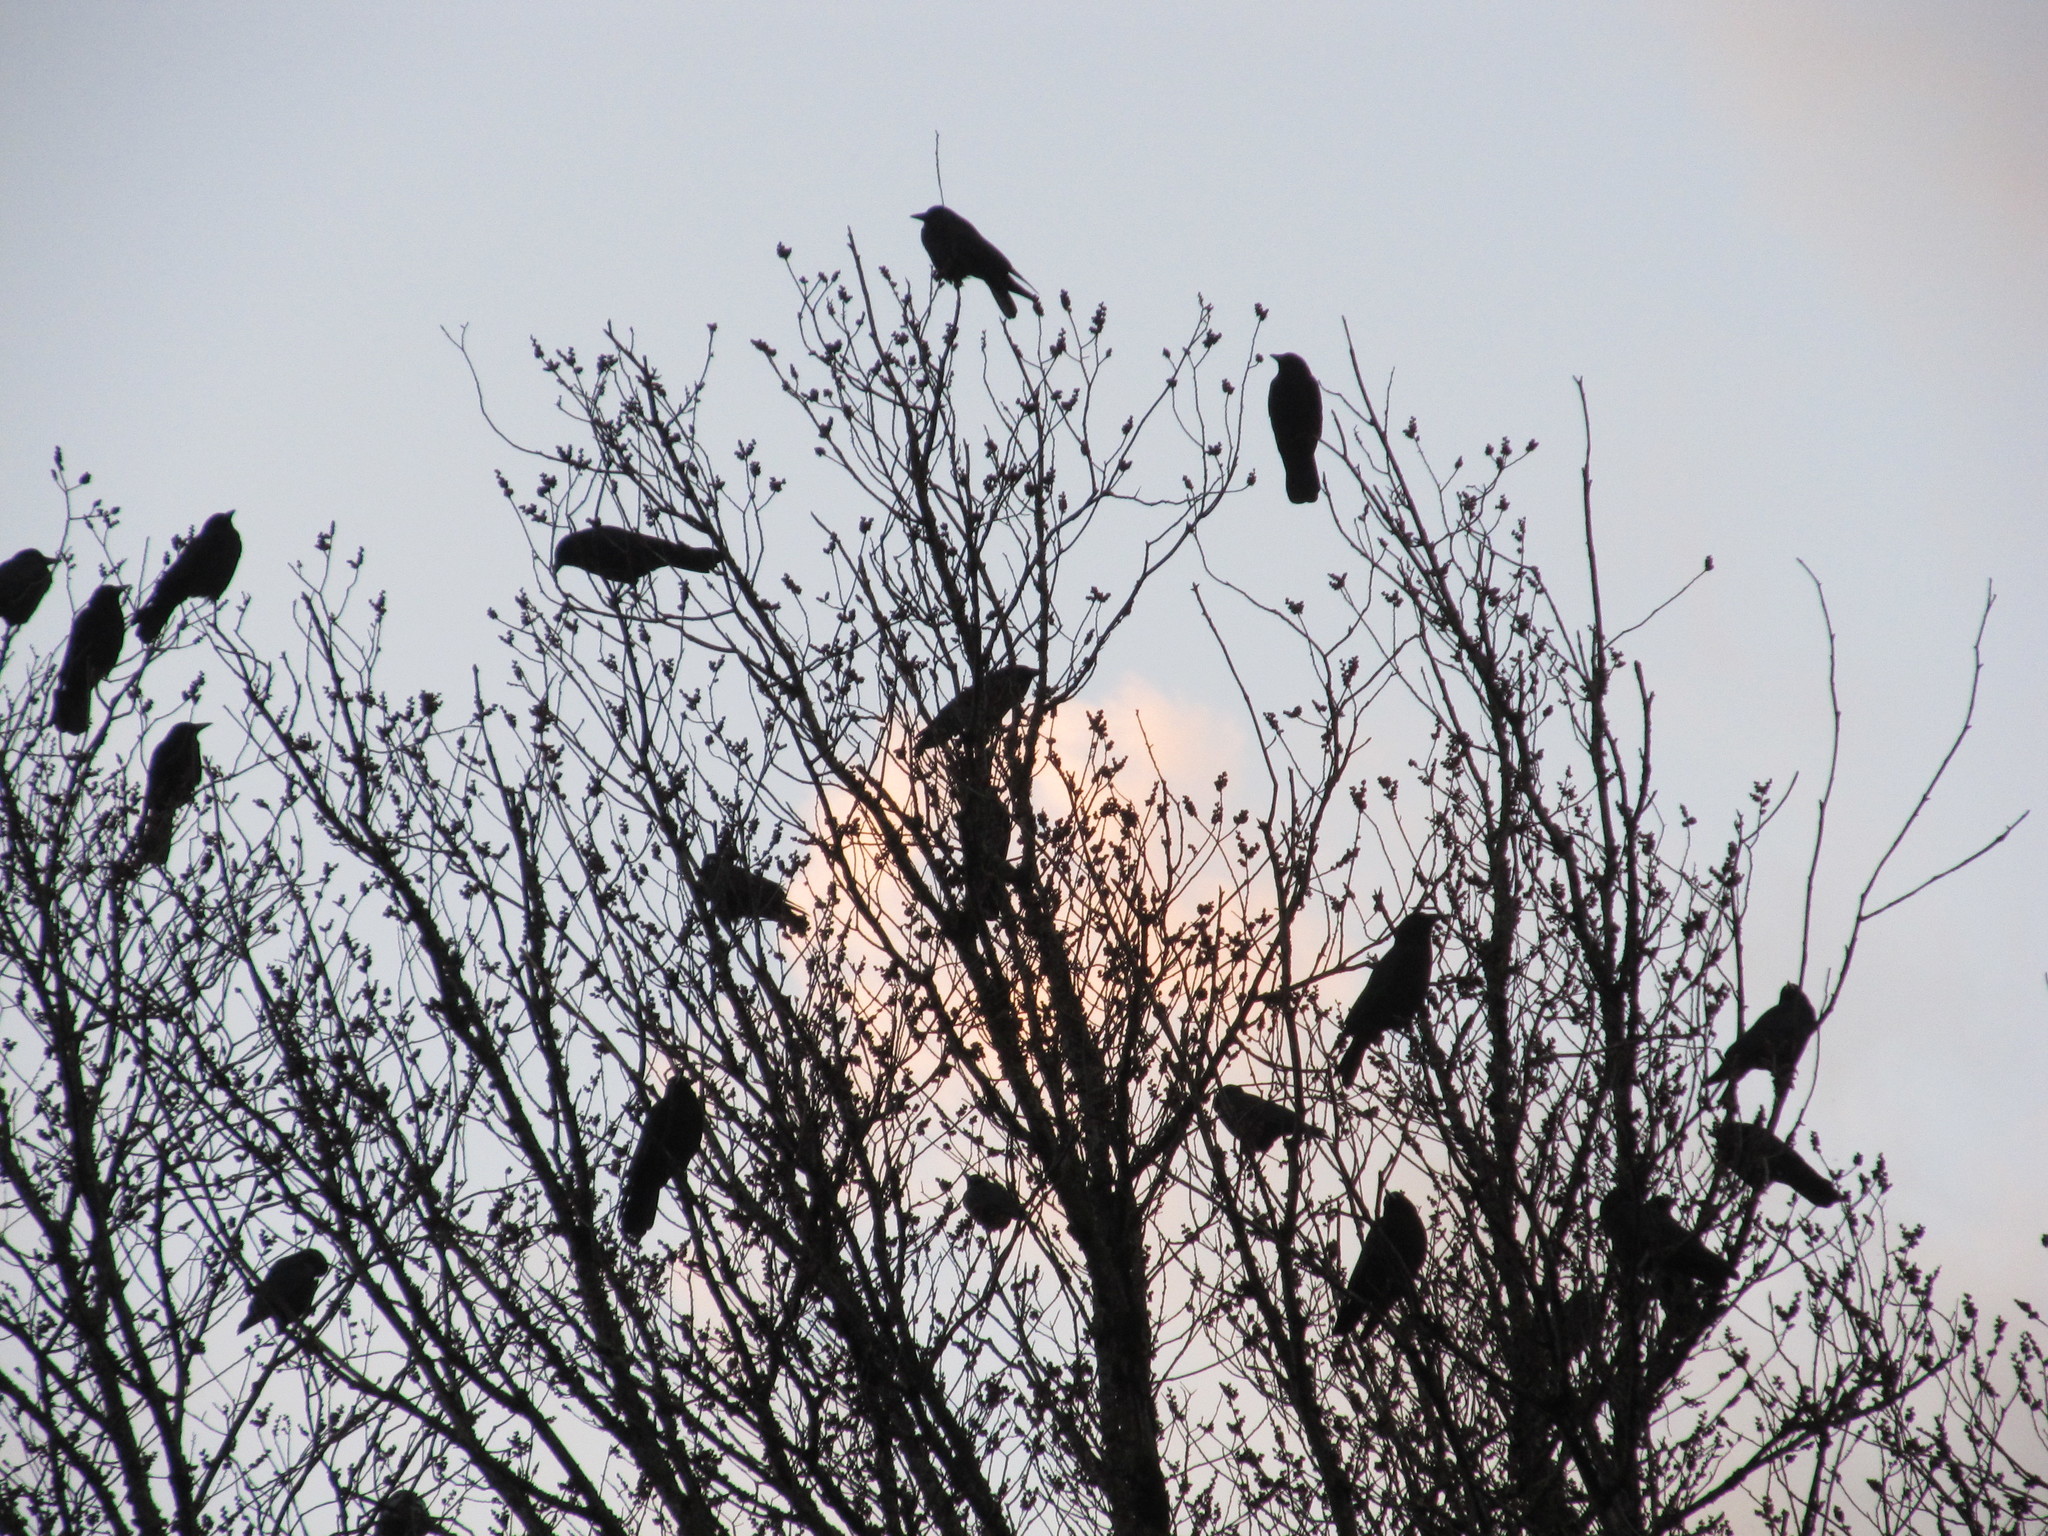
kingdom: Animalia
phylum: Chordata
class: Aves
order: Passeriformes
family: Corvidae
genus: Corvus
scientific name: Corvus brachyrhynchos
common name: American crow
